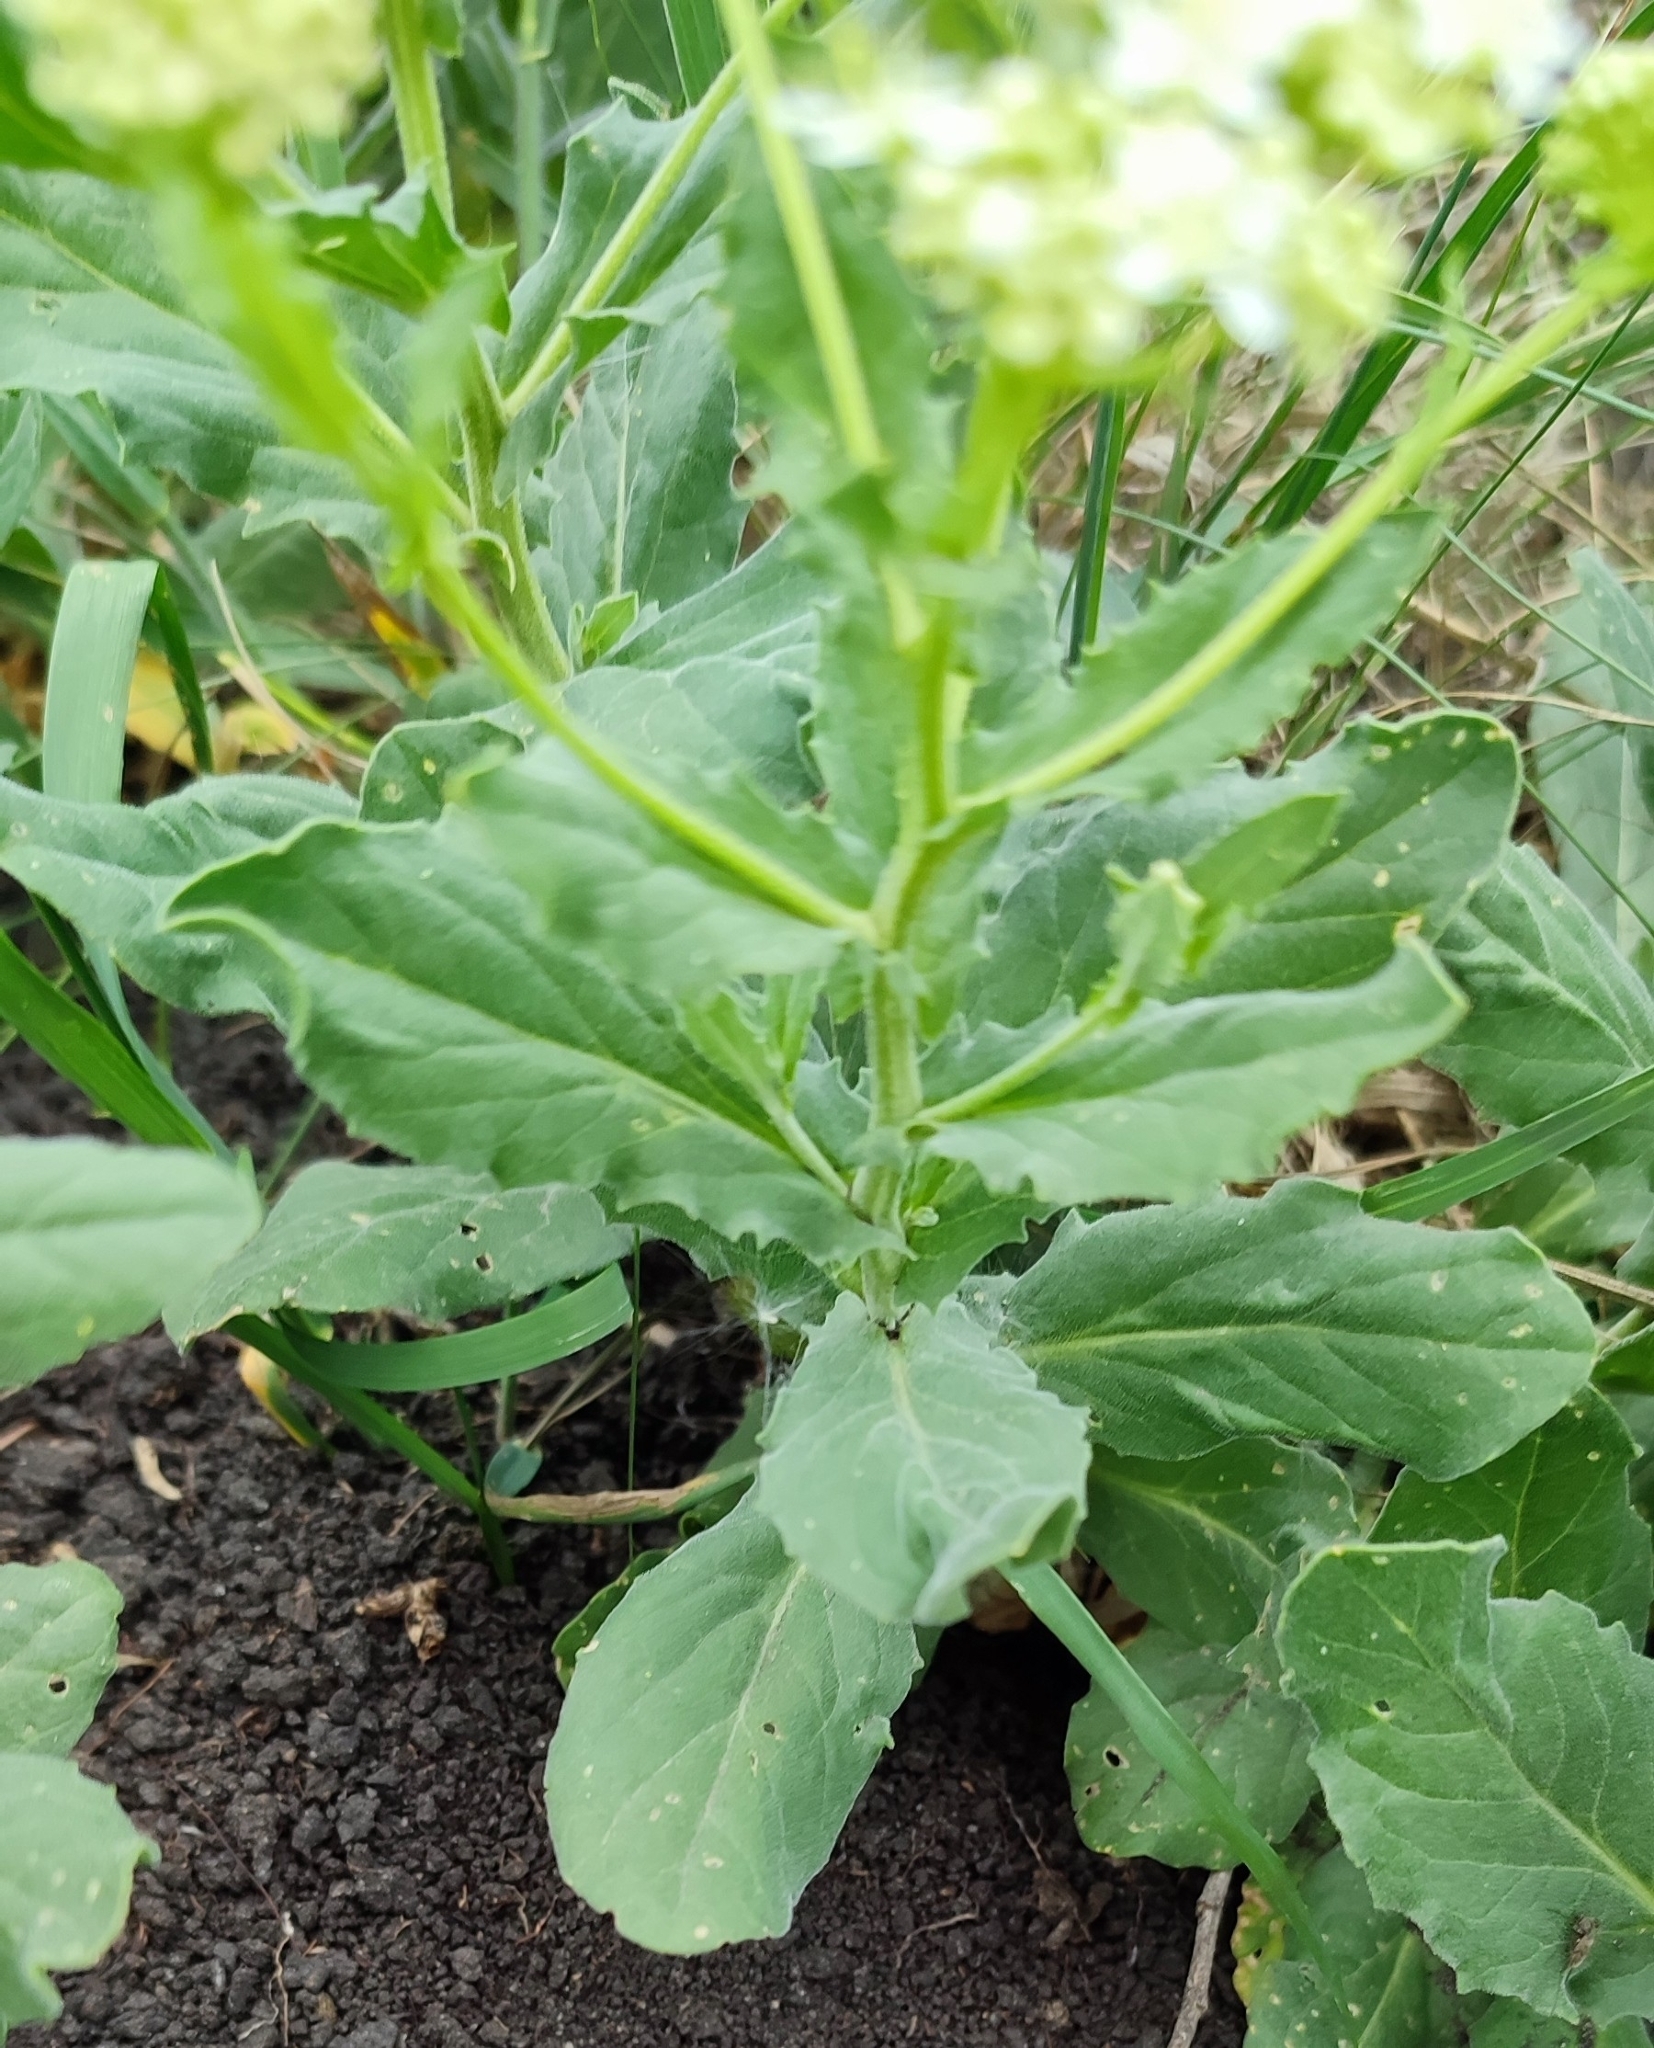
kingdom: Plantae
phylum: Tracheophyta
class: Magnoliopsida
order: Brassicales
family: Brassicaceae
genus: Lepidium
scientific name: Lepidium draba
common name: Hoary cress
